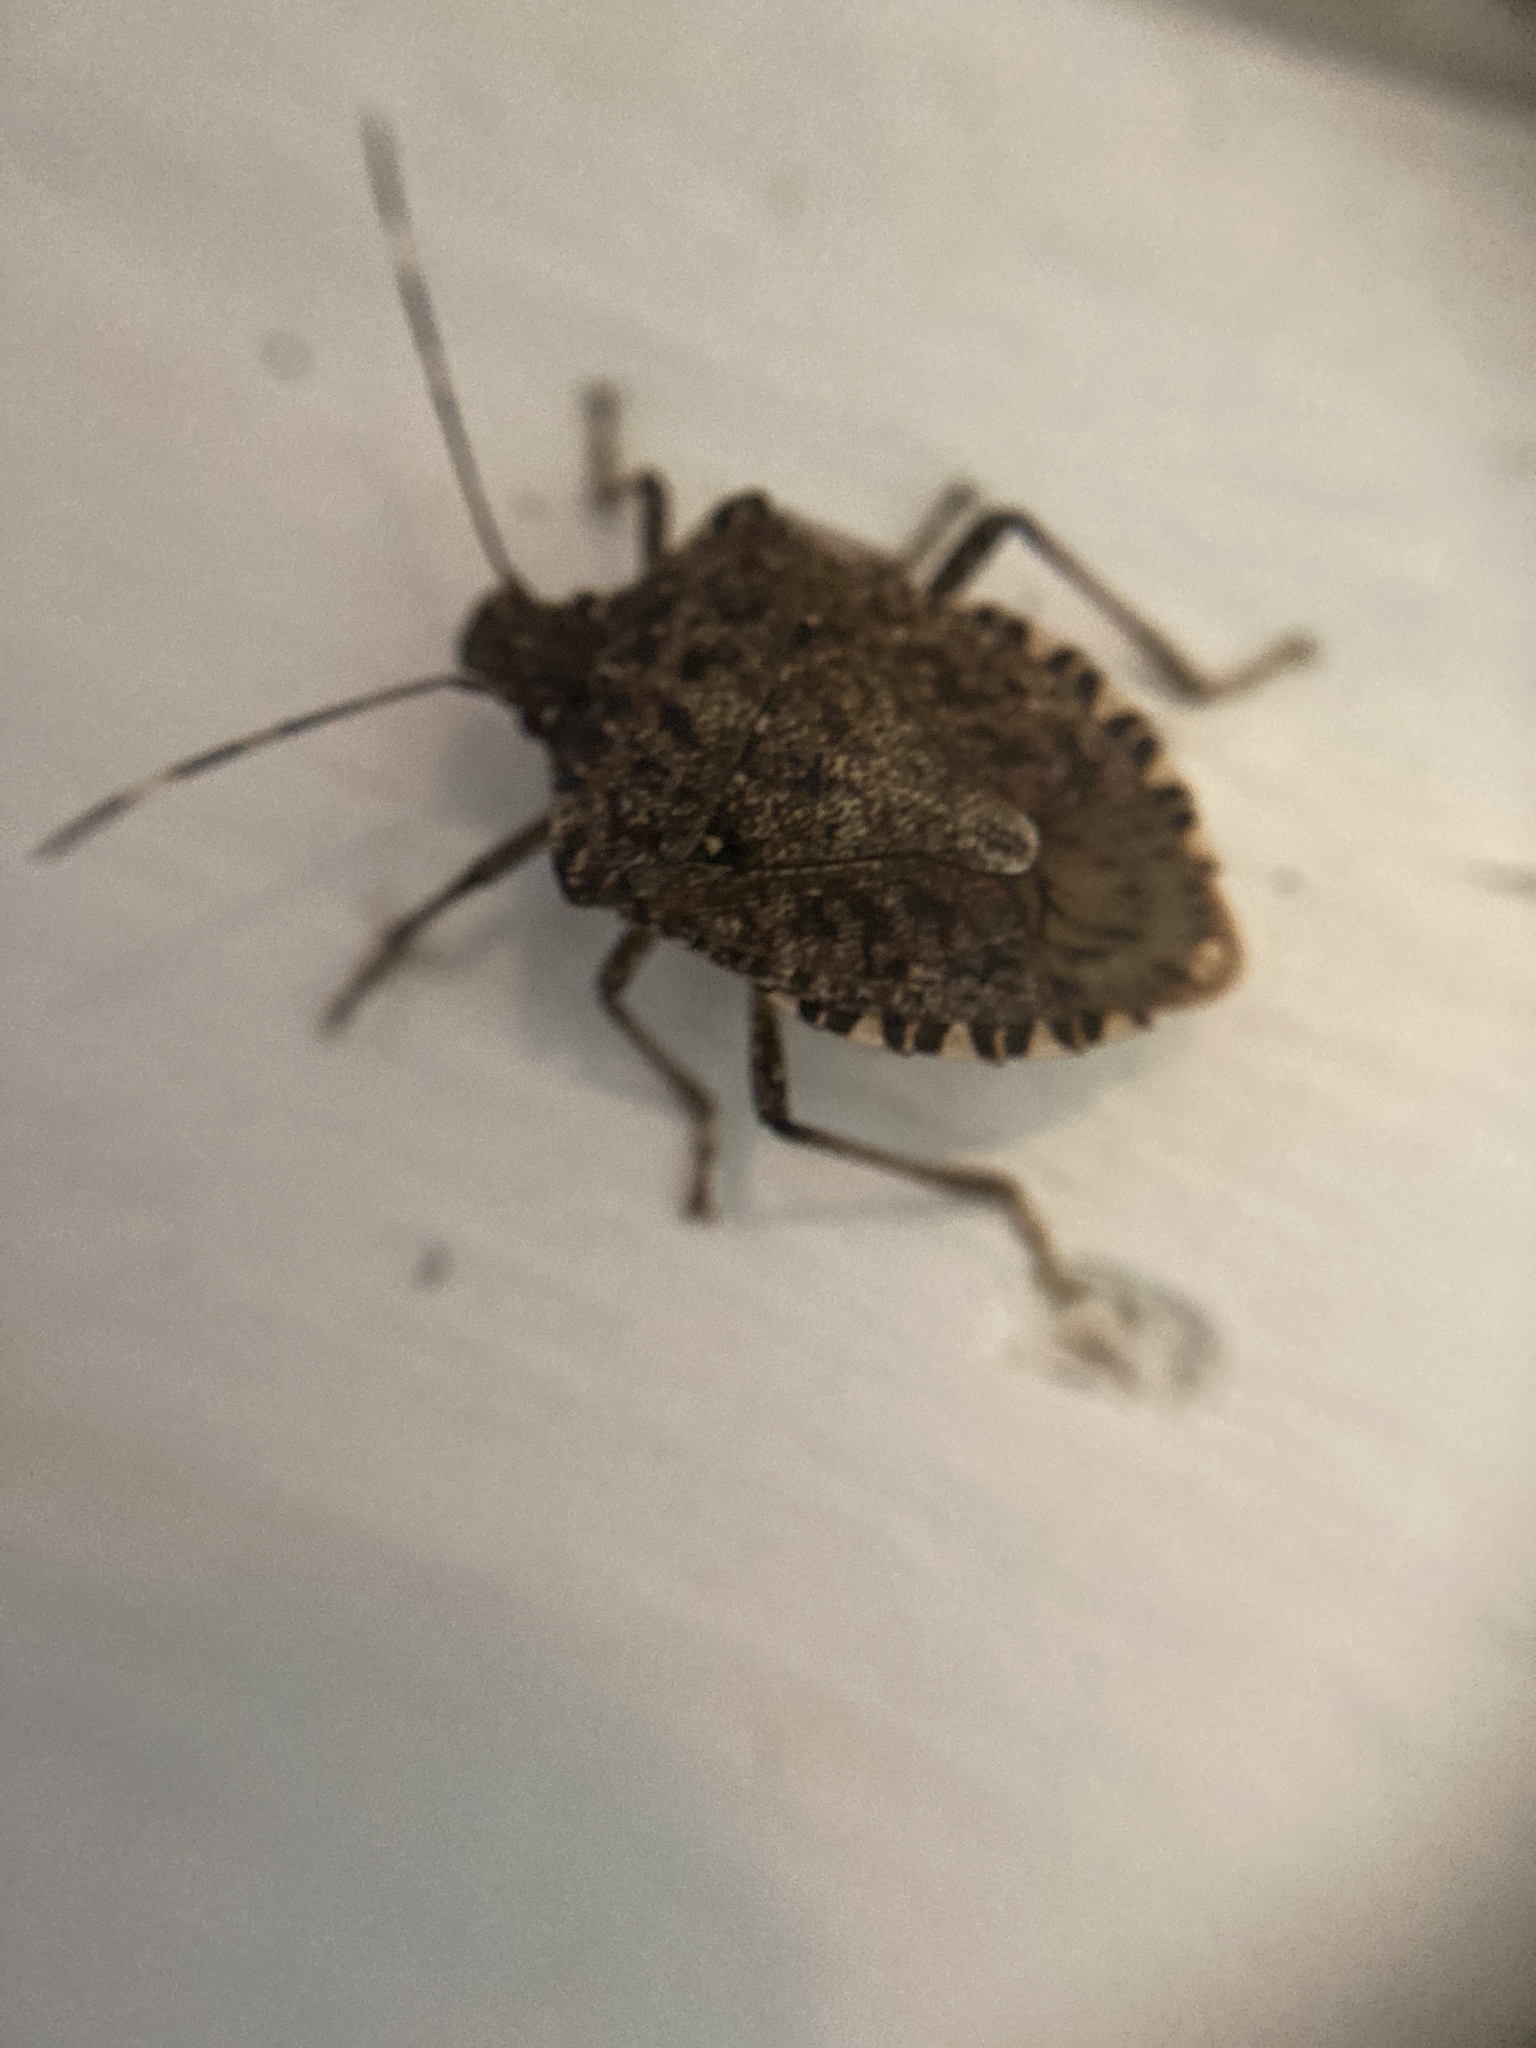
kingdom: Animalia
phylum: Arthropoda
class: Insecta
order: Hemiptera
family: Pentatomidae
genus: Halyomorpha
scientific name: Halyomorpha halys
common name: Brown marmorated stink bug
